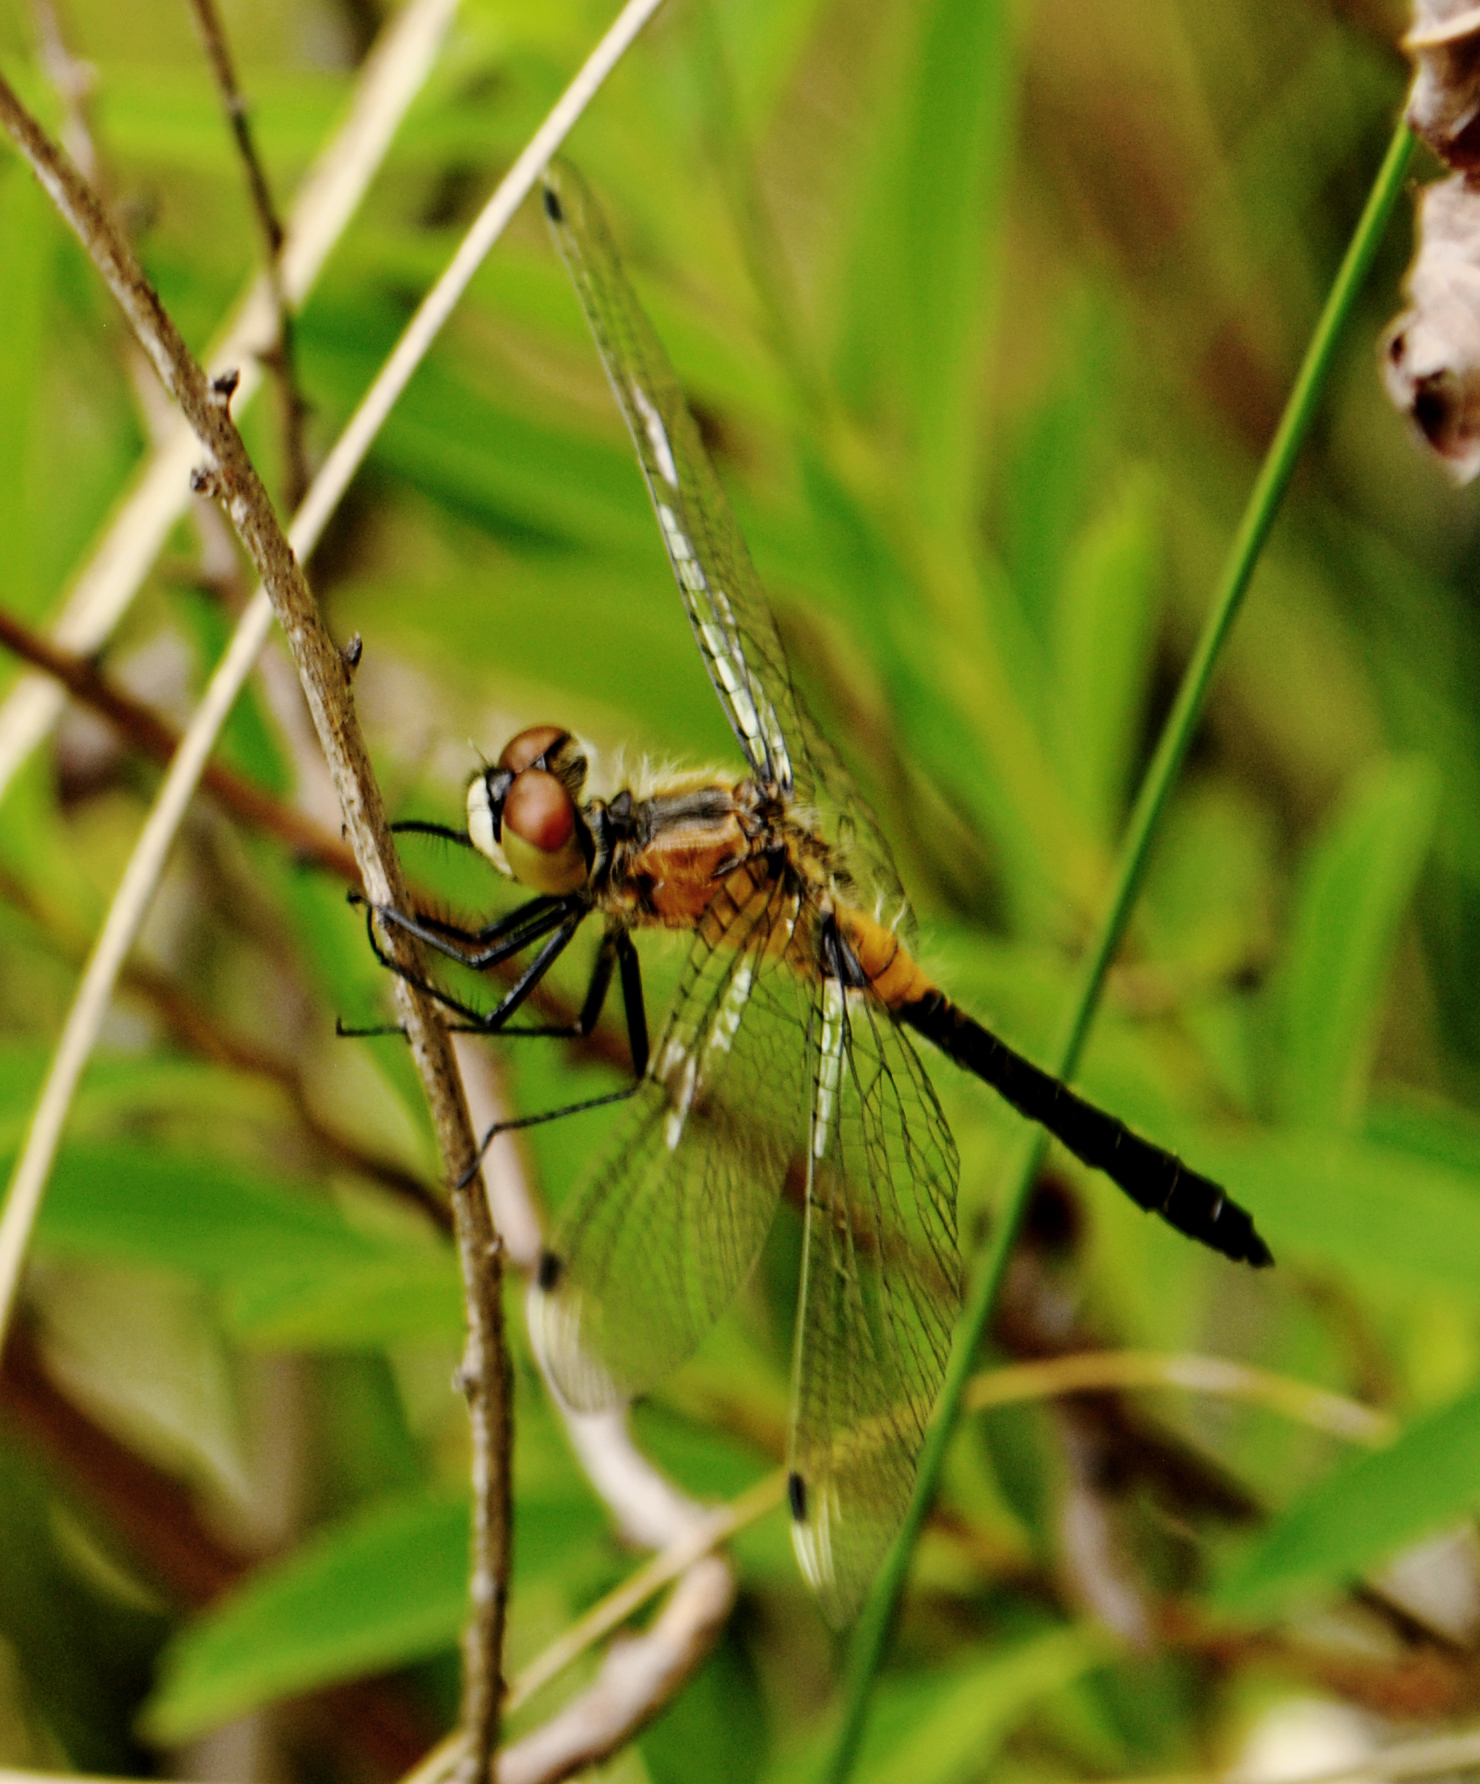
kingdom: Animalia
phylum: Arthropoda
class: Insecta
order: Odonata
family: Libellulidae
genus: Leucorrhinia
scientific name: Leucorrhinia frigida
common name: Frosted whiteface
